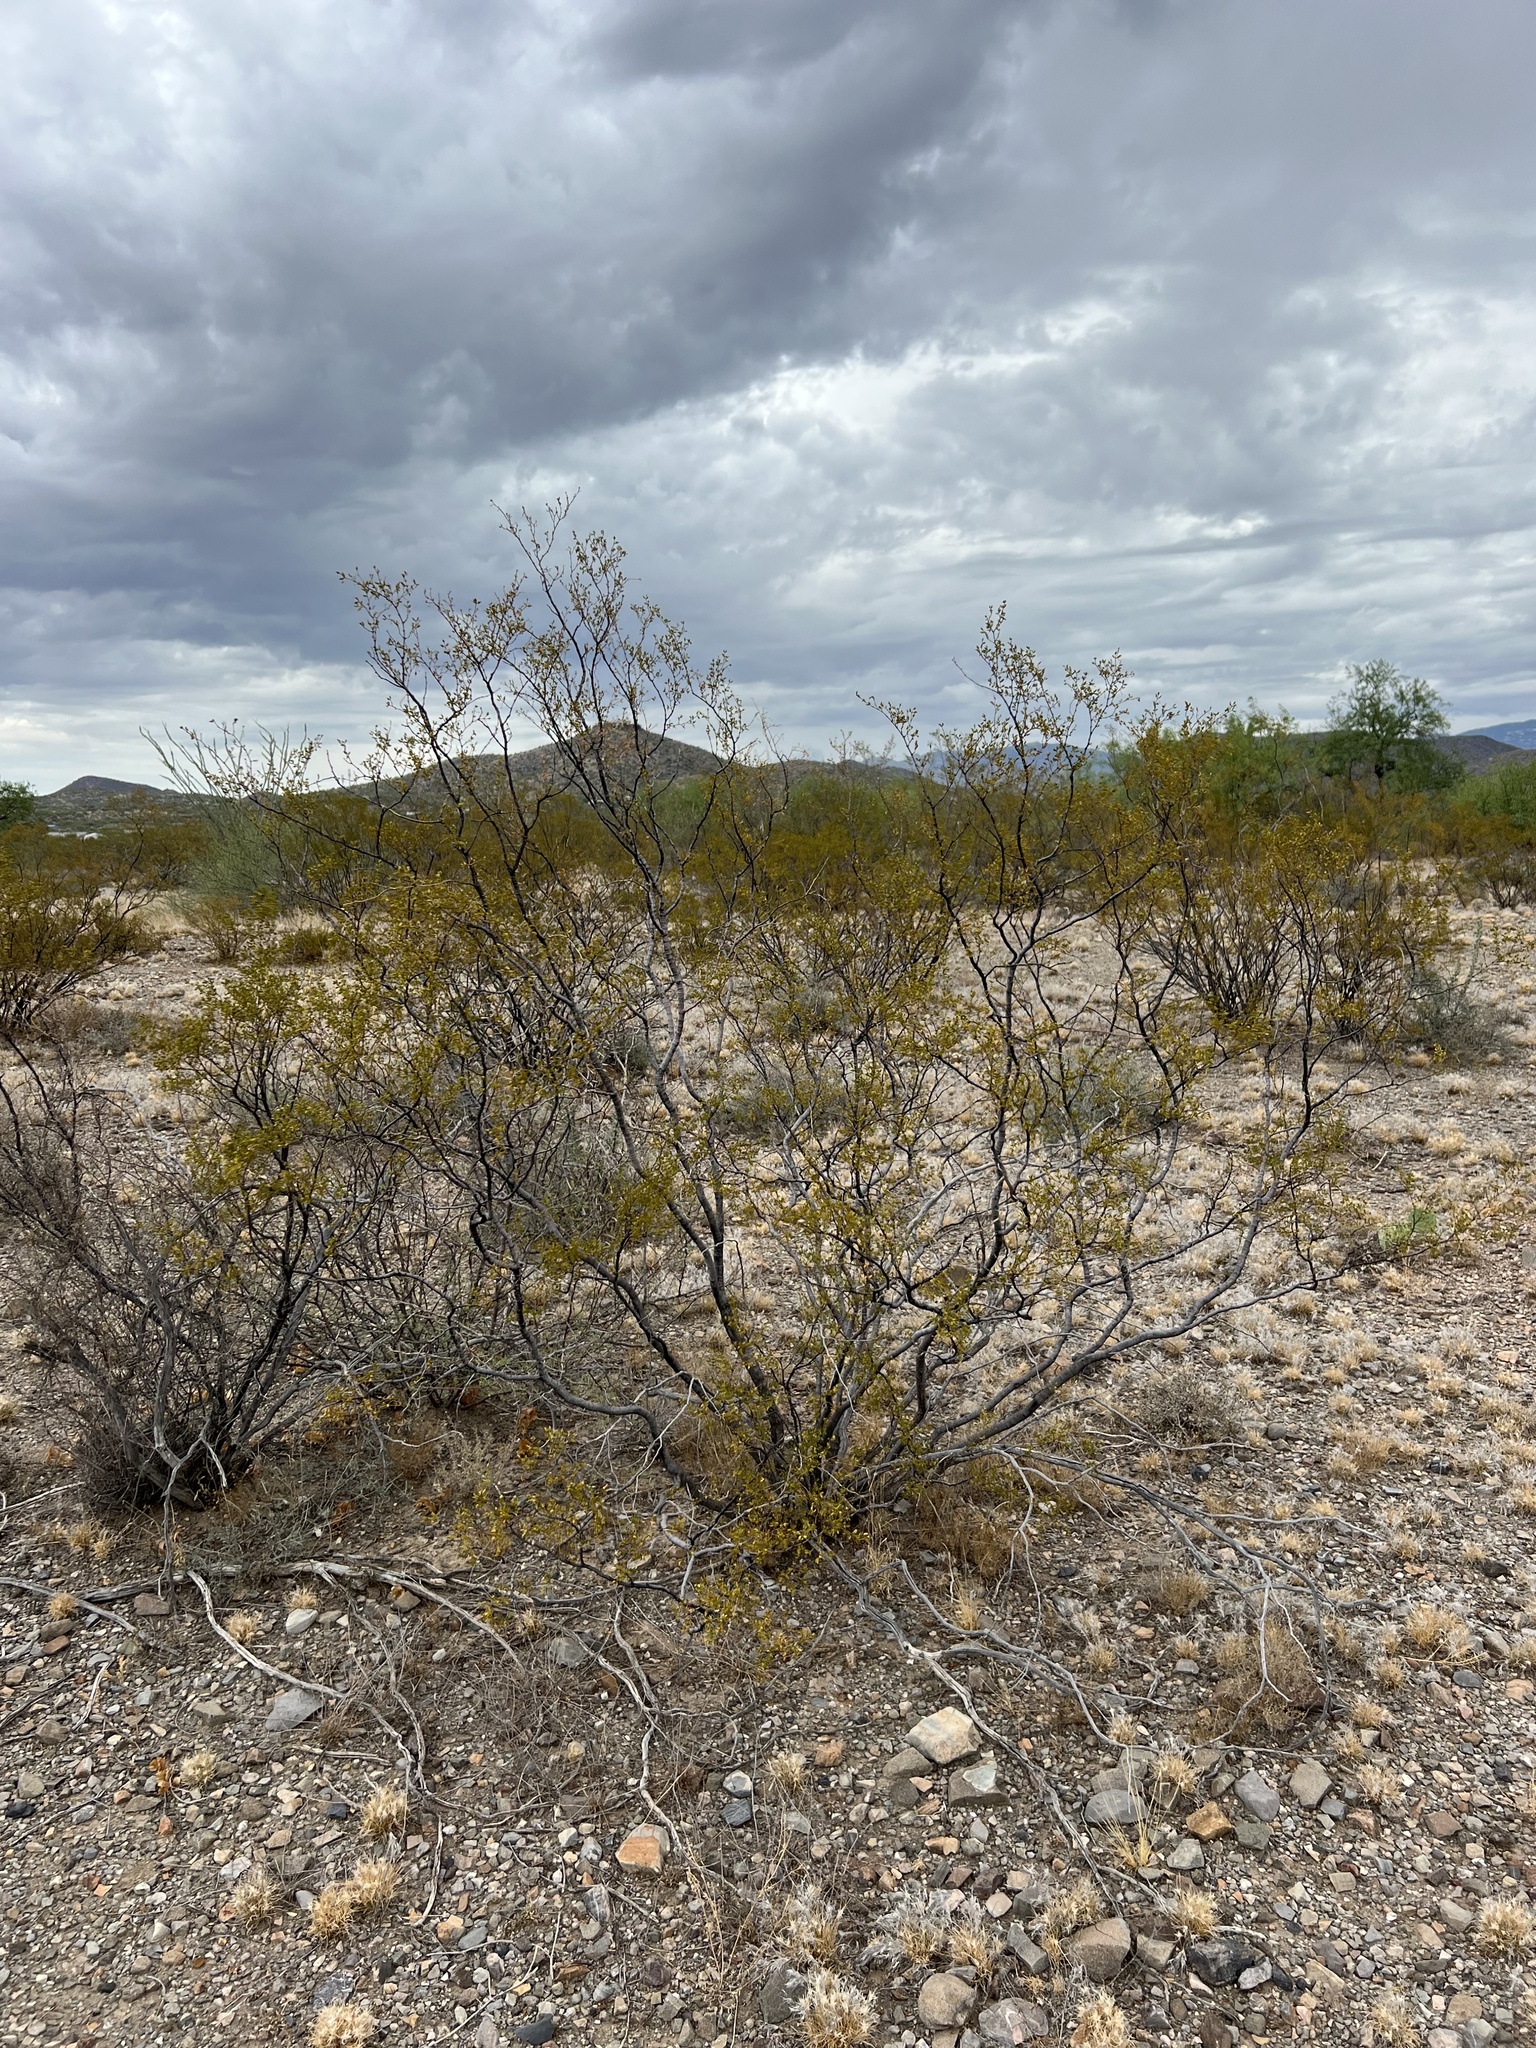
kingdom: Plantae
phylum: Tracheophyta
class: Magnoliopsida
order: Zygophyllales
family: Zygophyllaceae
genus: Larrea
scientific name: Larrea tridentata
